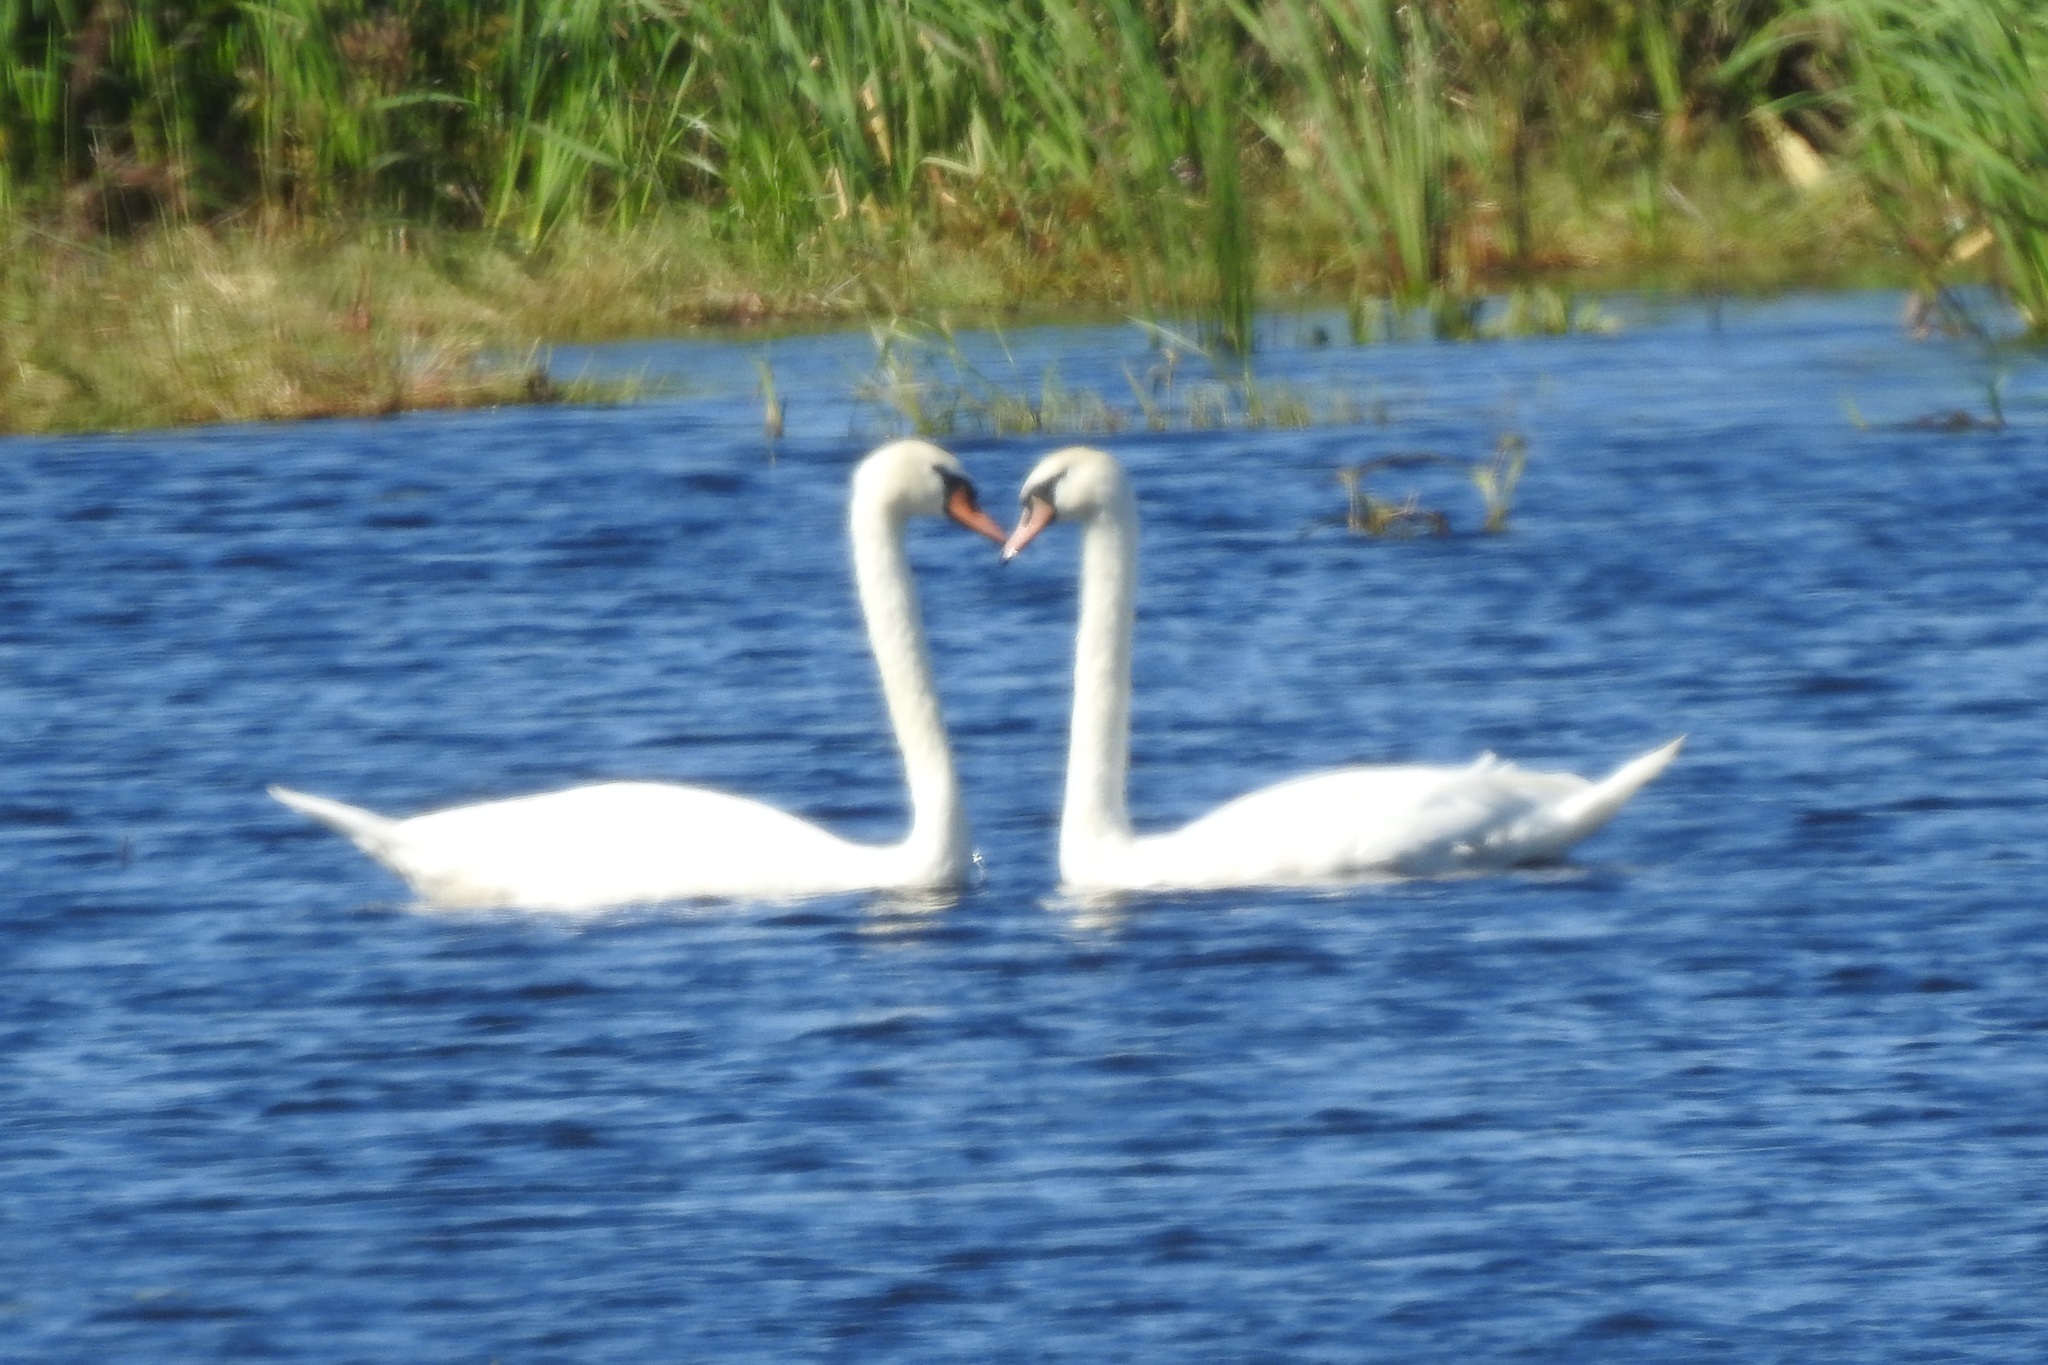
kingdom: Animalia
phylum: Chordata
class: Aves
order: Anseriformes
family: Anatidae
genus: Cygnus
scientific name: Cygnus olor
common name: Mute swan
